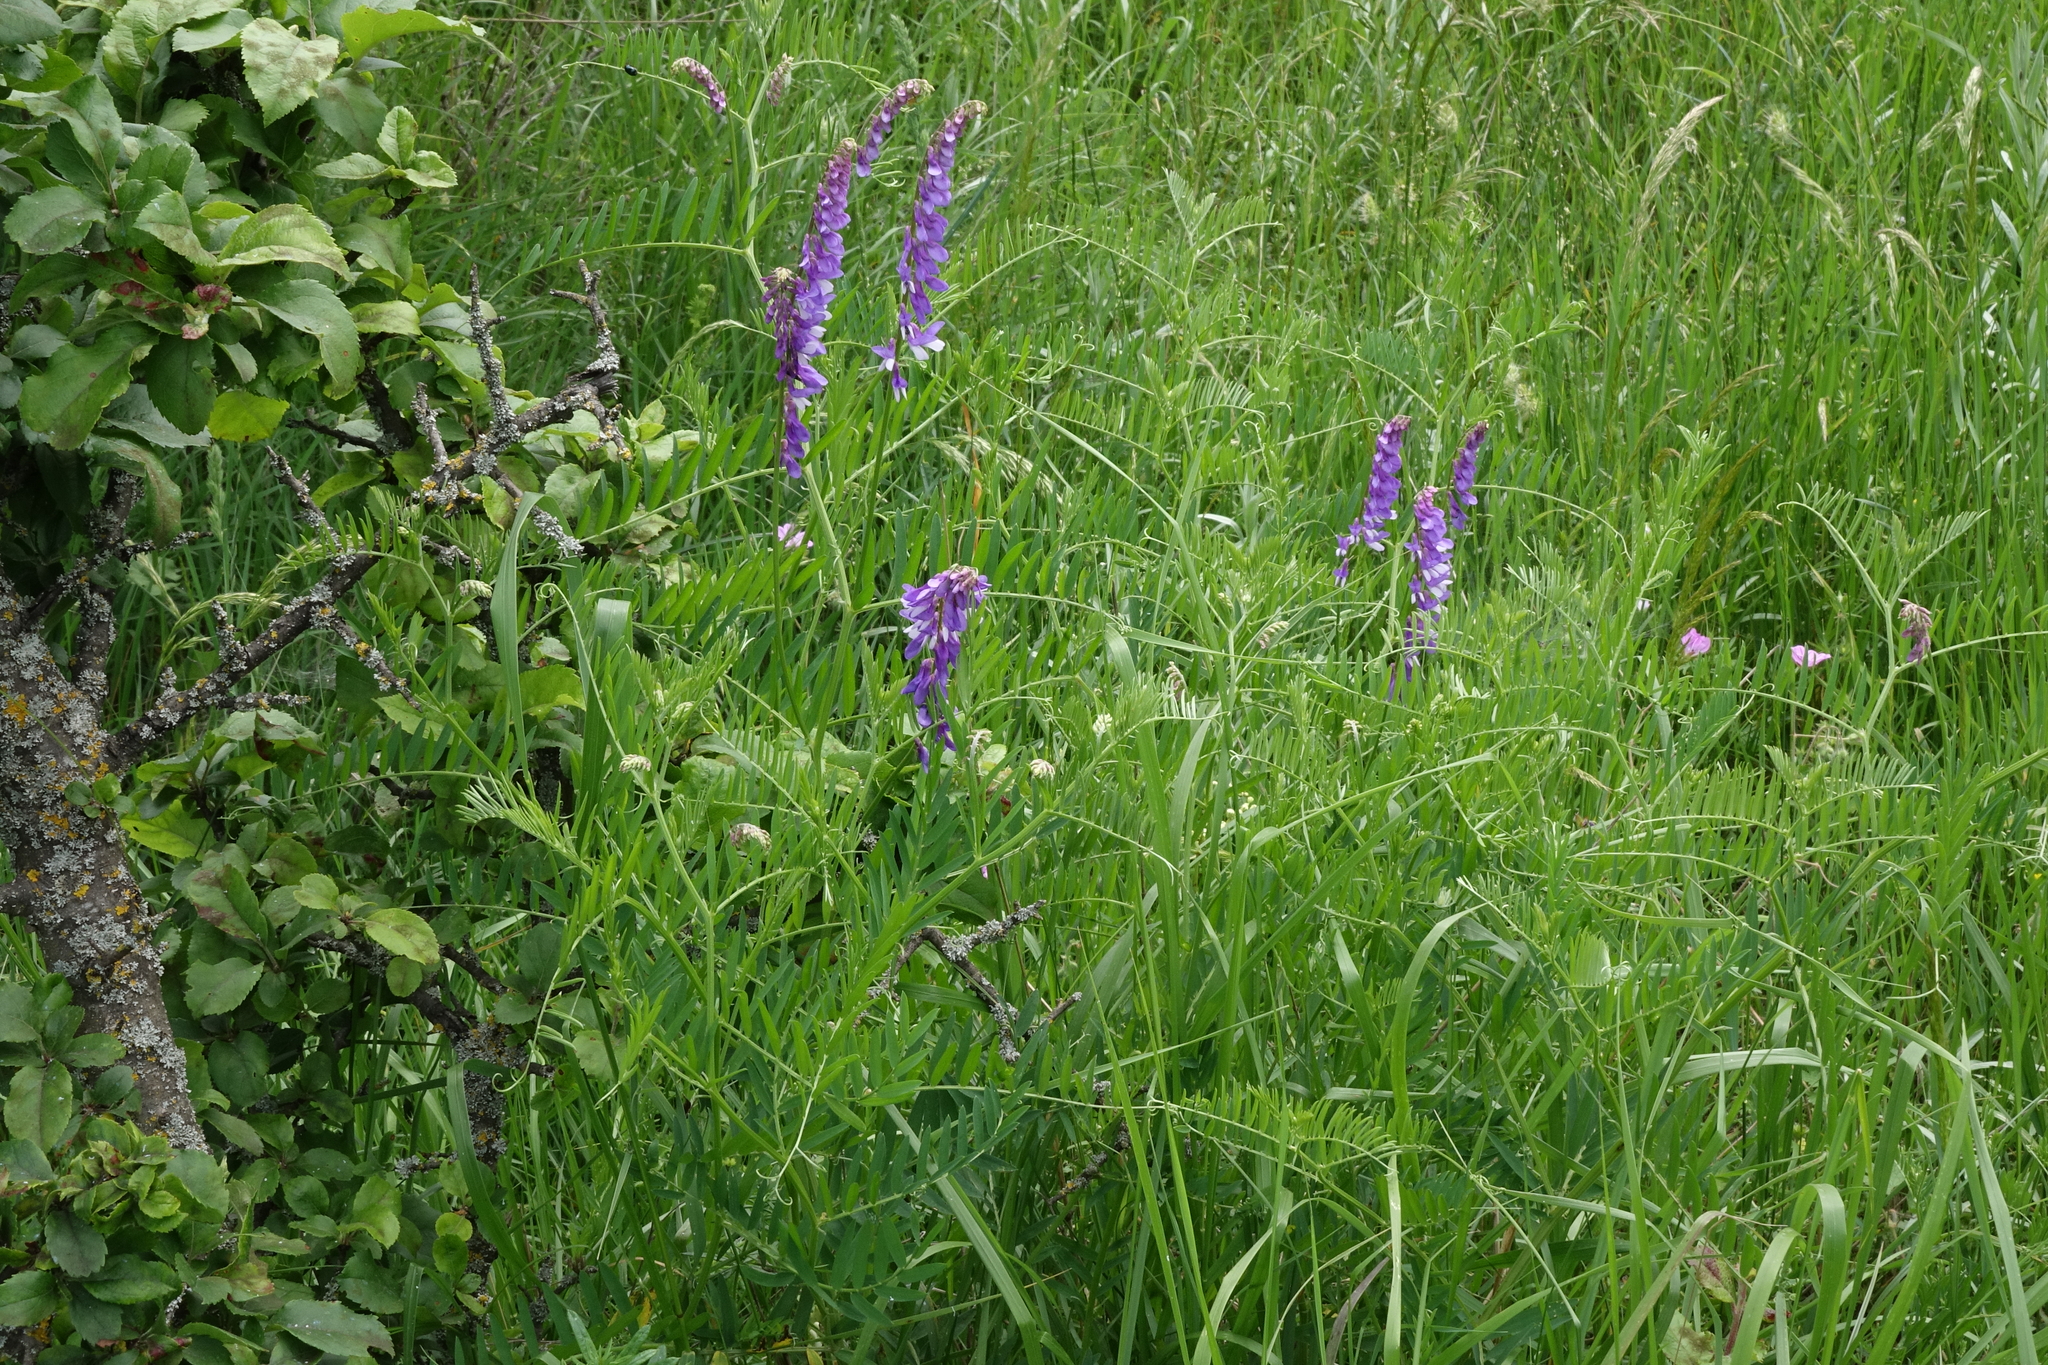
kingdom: Plantae
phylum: Tracheophyta
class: Magnoliopsida
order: Fabales
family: Fabaceae
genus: Vicia
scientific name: Vicia tenuifolia
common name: Fine-leaved vetch
